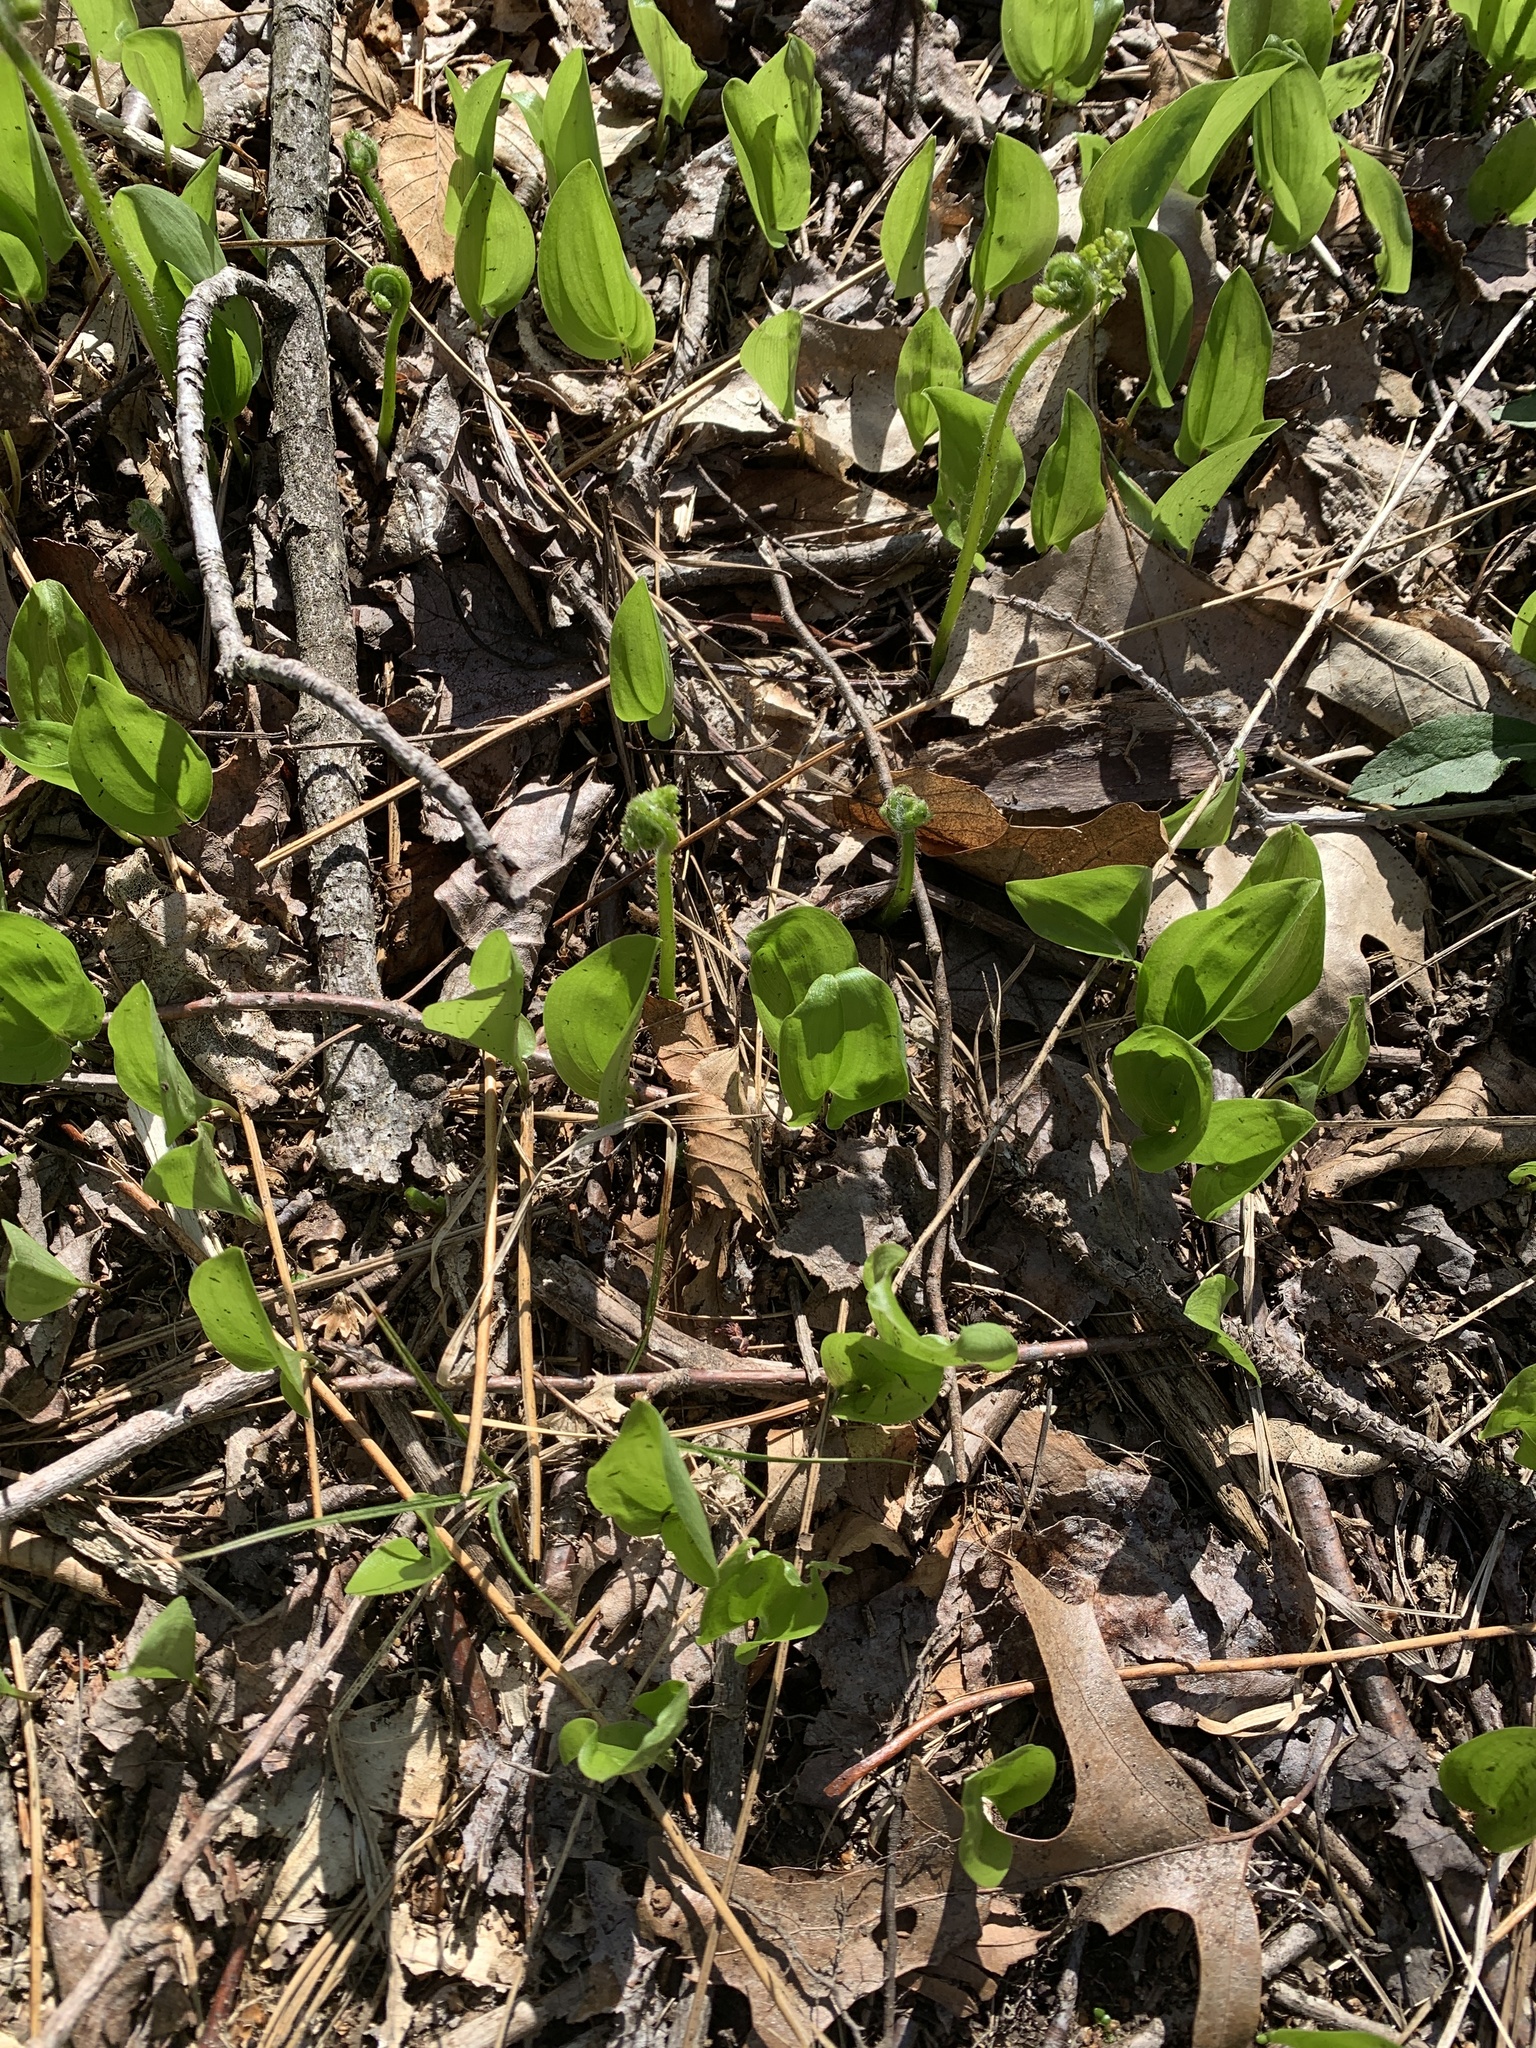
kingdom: Plantae
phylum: Tracheophyta
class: Liliopsida
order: Asparagales
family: Asparagaceae
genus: Maianthemum
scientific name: Maianthemum canadense
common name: False lily-of-the-valley
